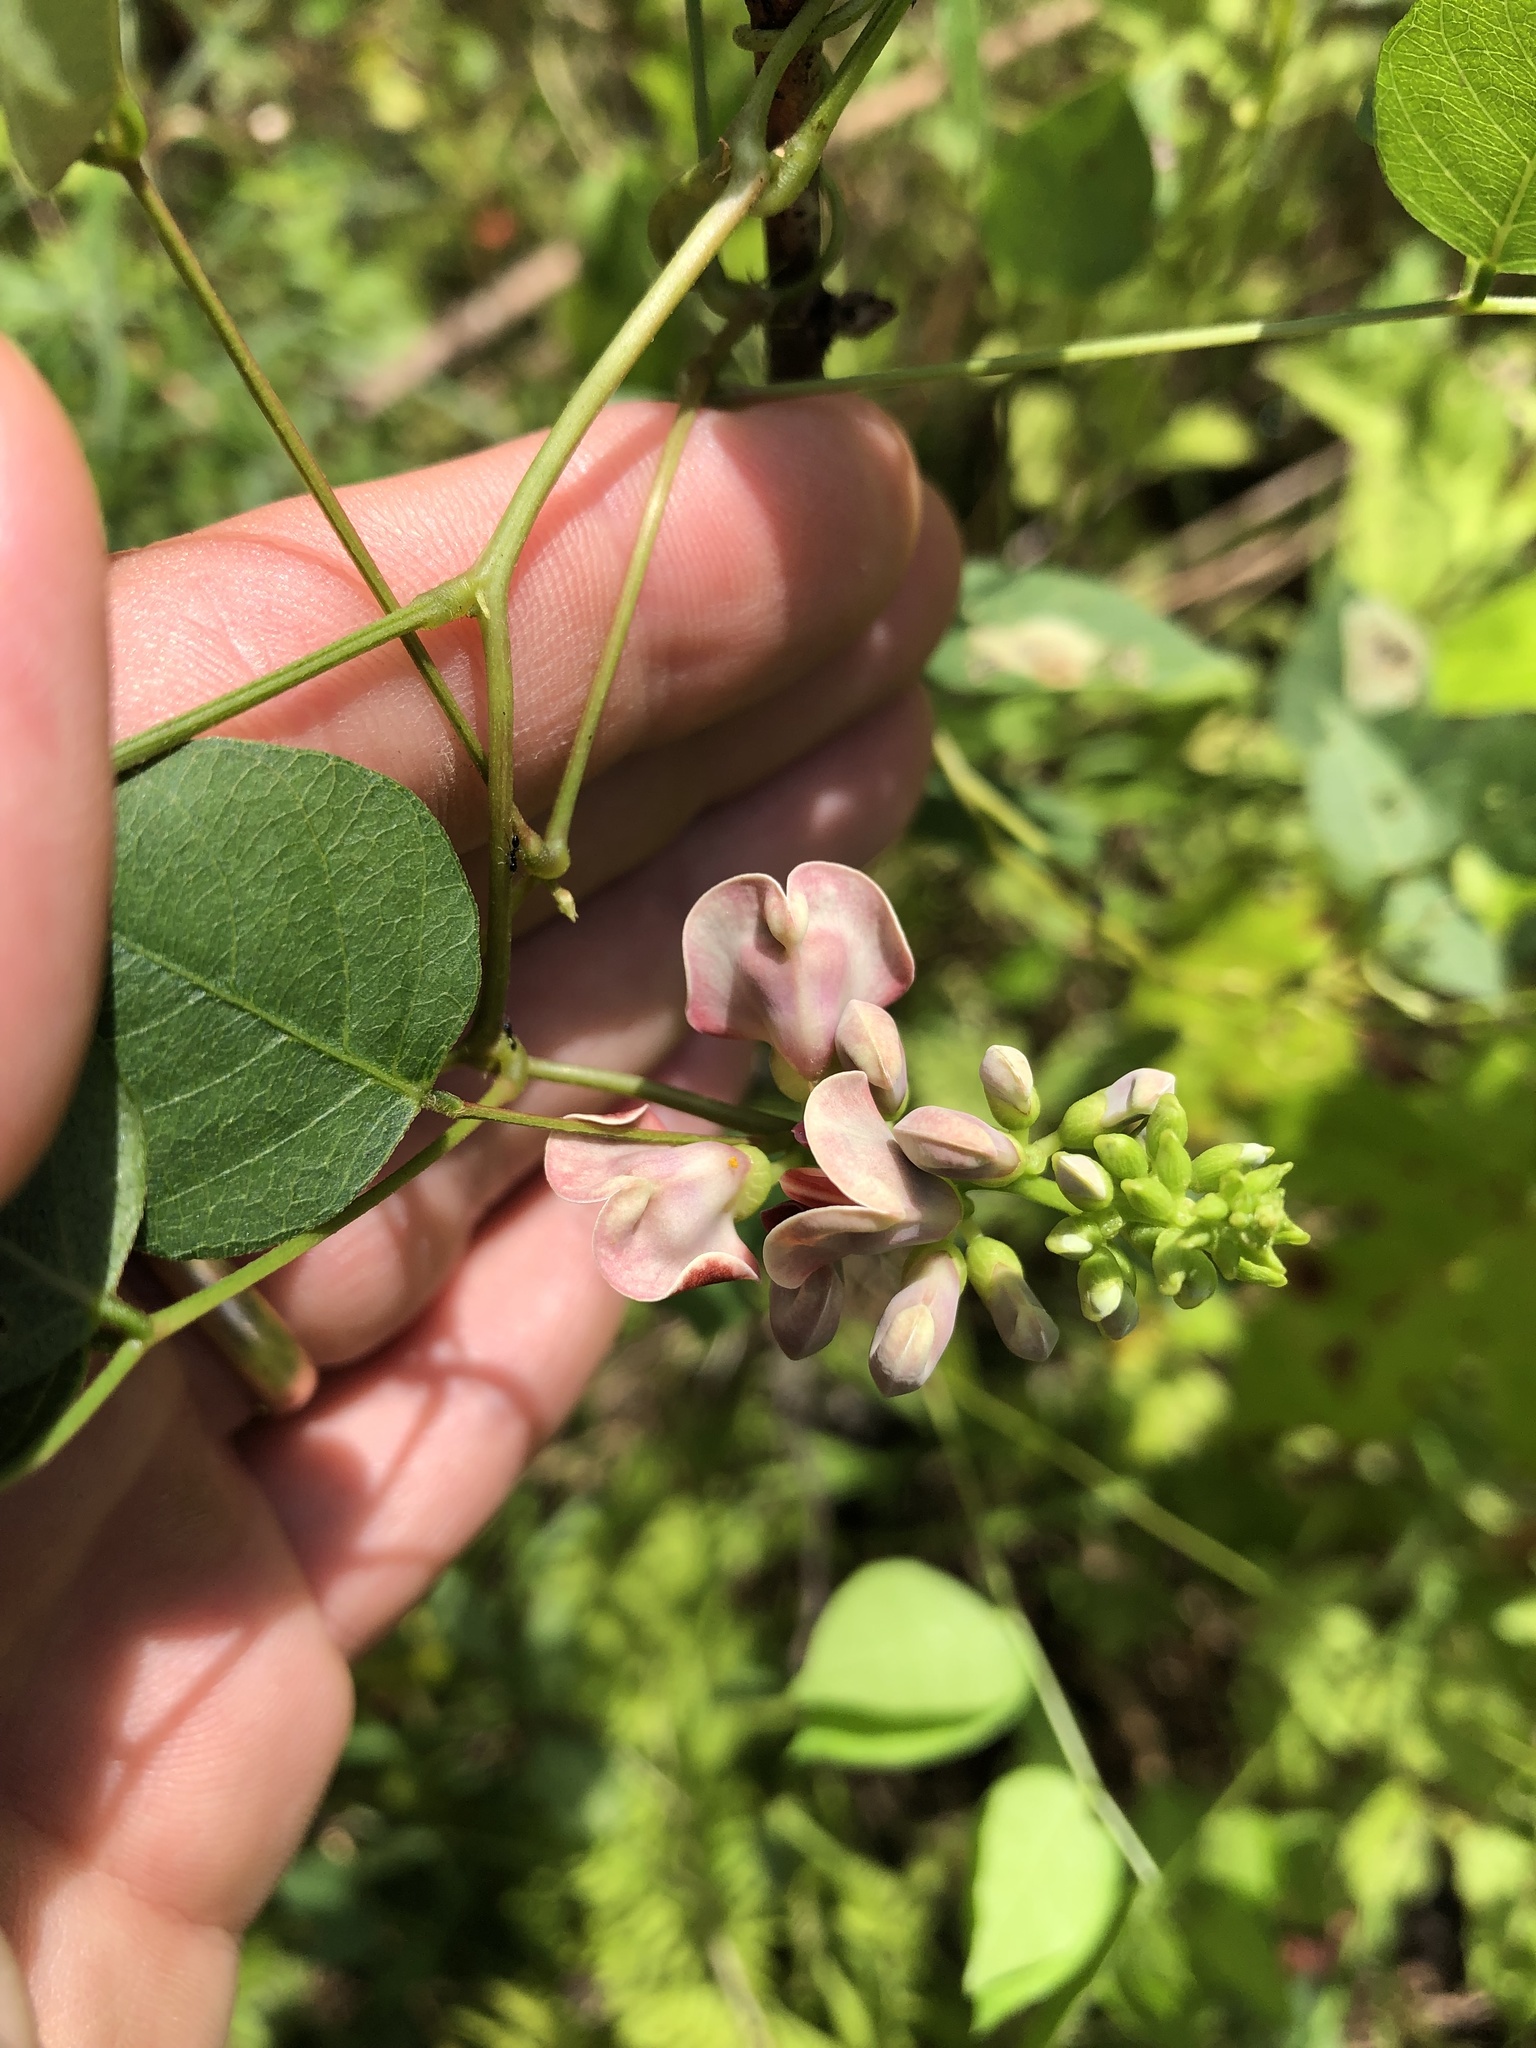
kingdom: Plantae
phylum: Tracheophyta
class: Magnoliopsida
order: Fabales
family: Fabaceae
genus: Apios
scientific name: Apios americana
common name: American potato-bean
